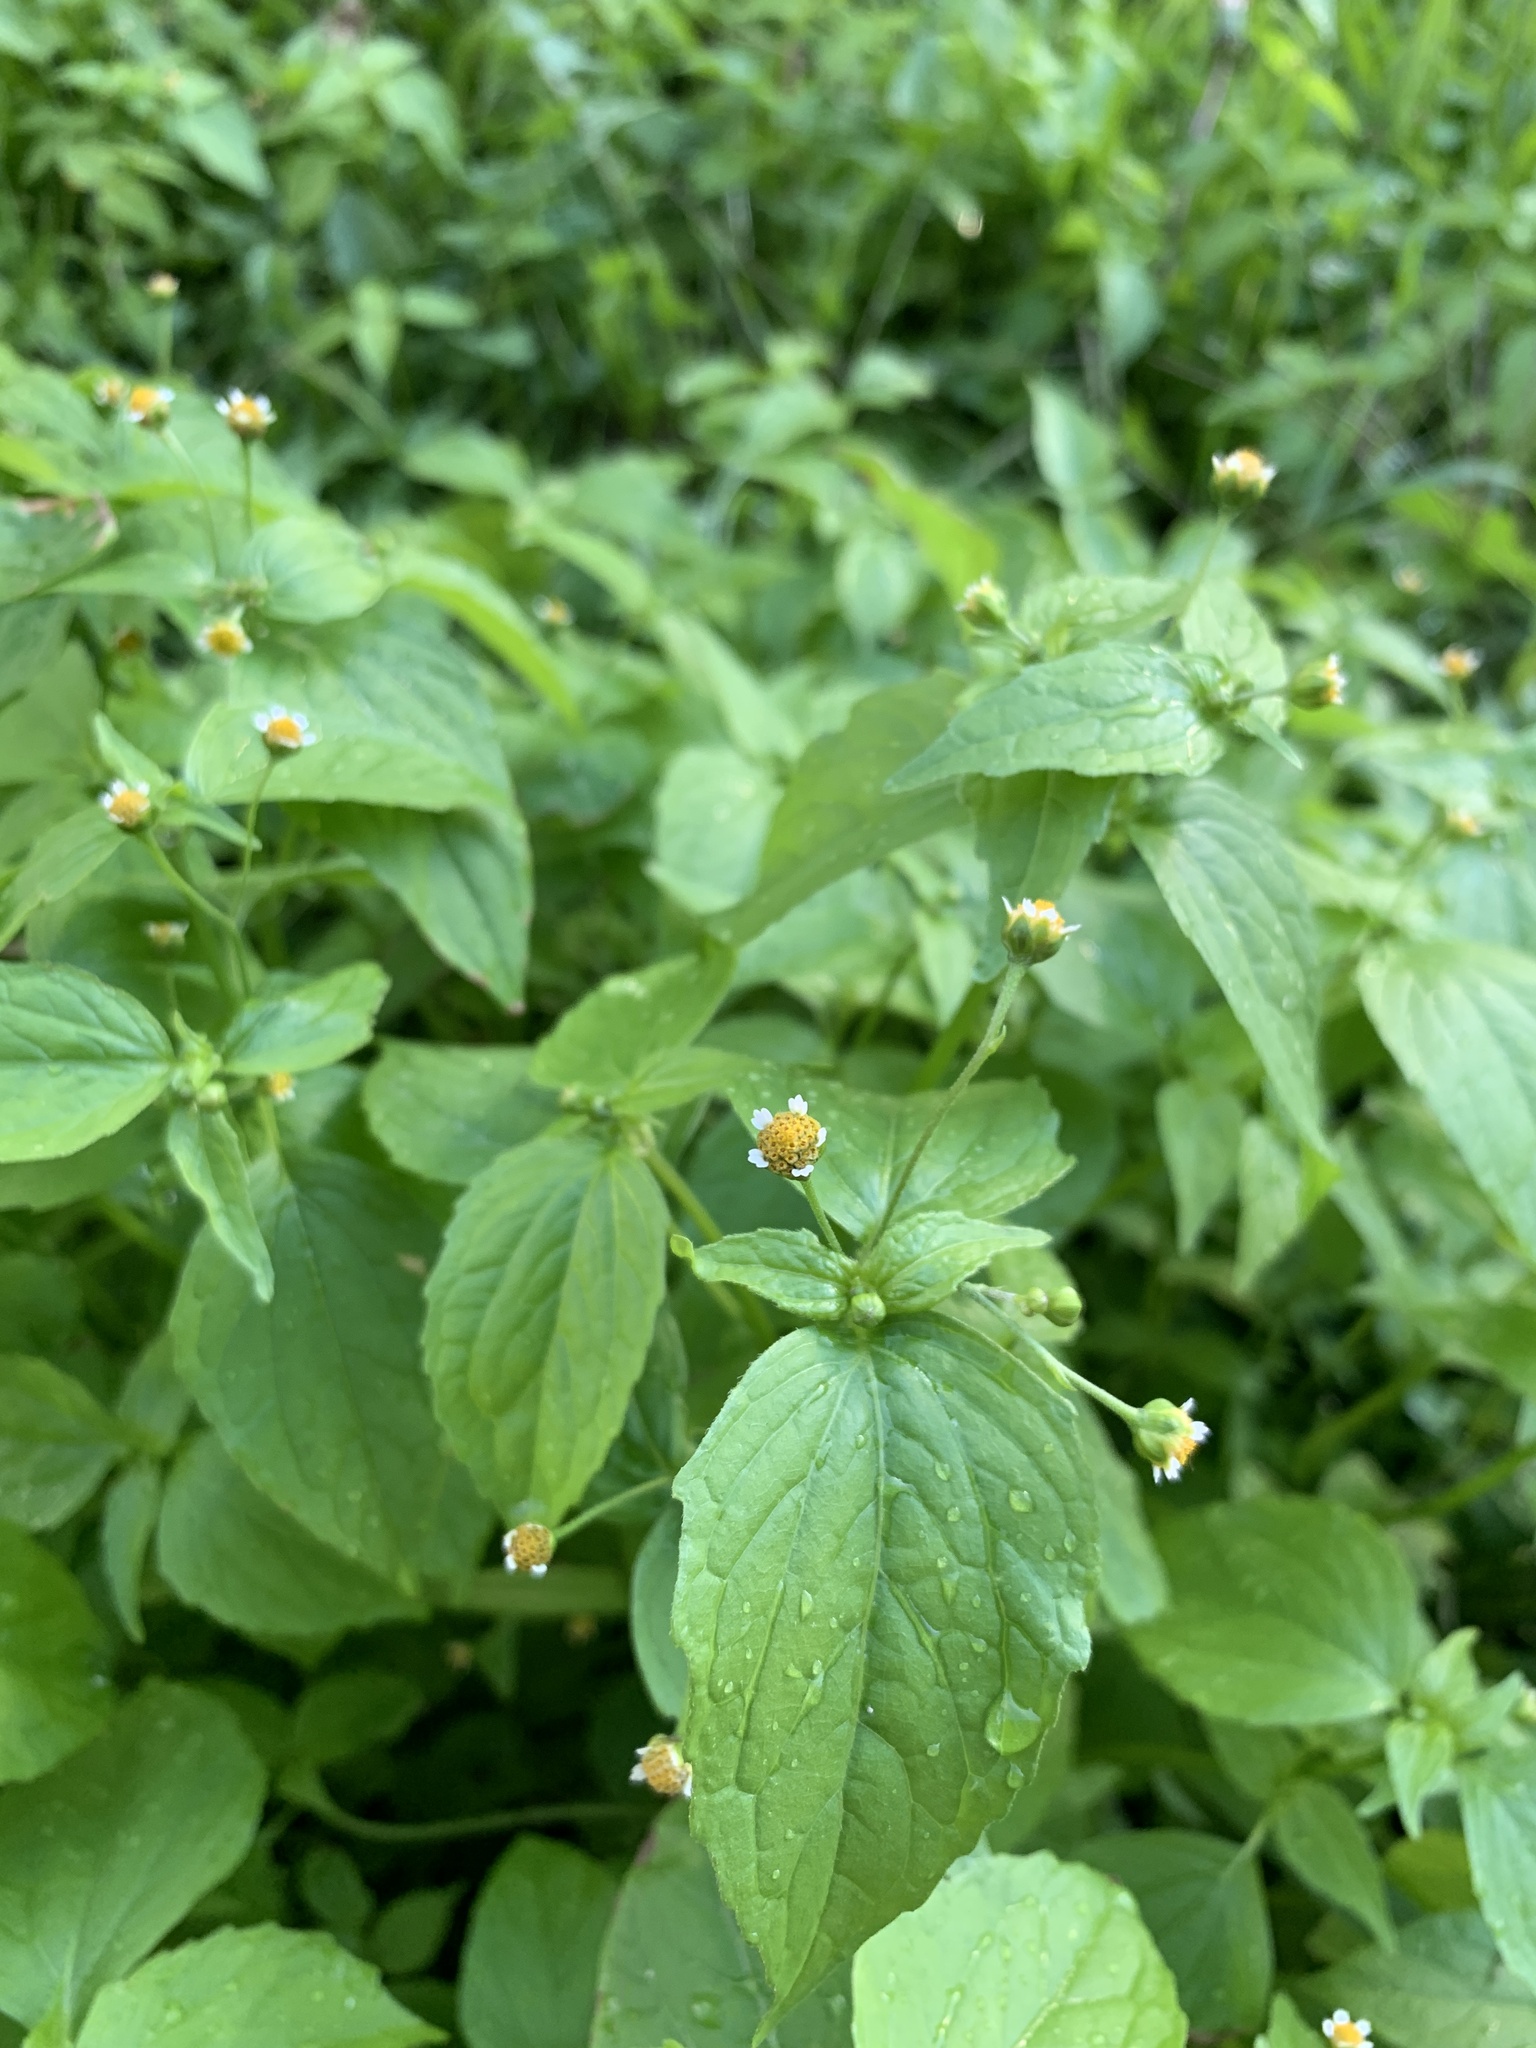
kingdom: Plantae
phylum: Tracheophyta
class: Magnoliopsida
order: Asterales
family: Asteraceae
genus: Galinsoga
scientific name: Galinsoga parviflora
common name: Gallant soldier
